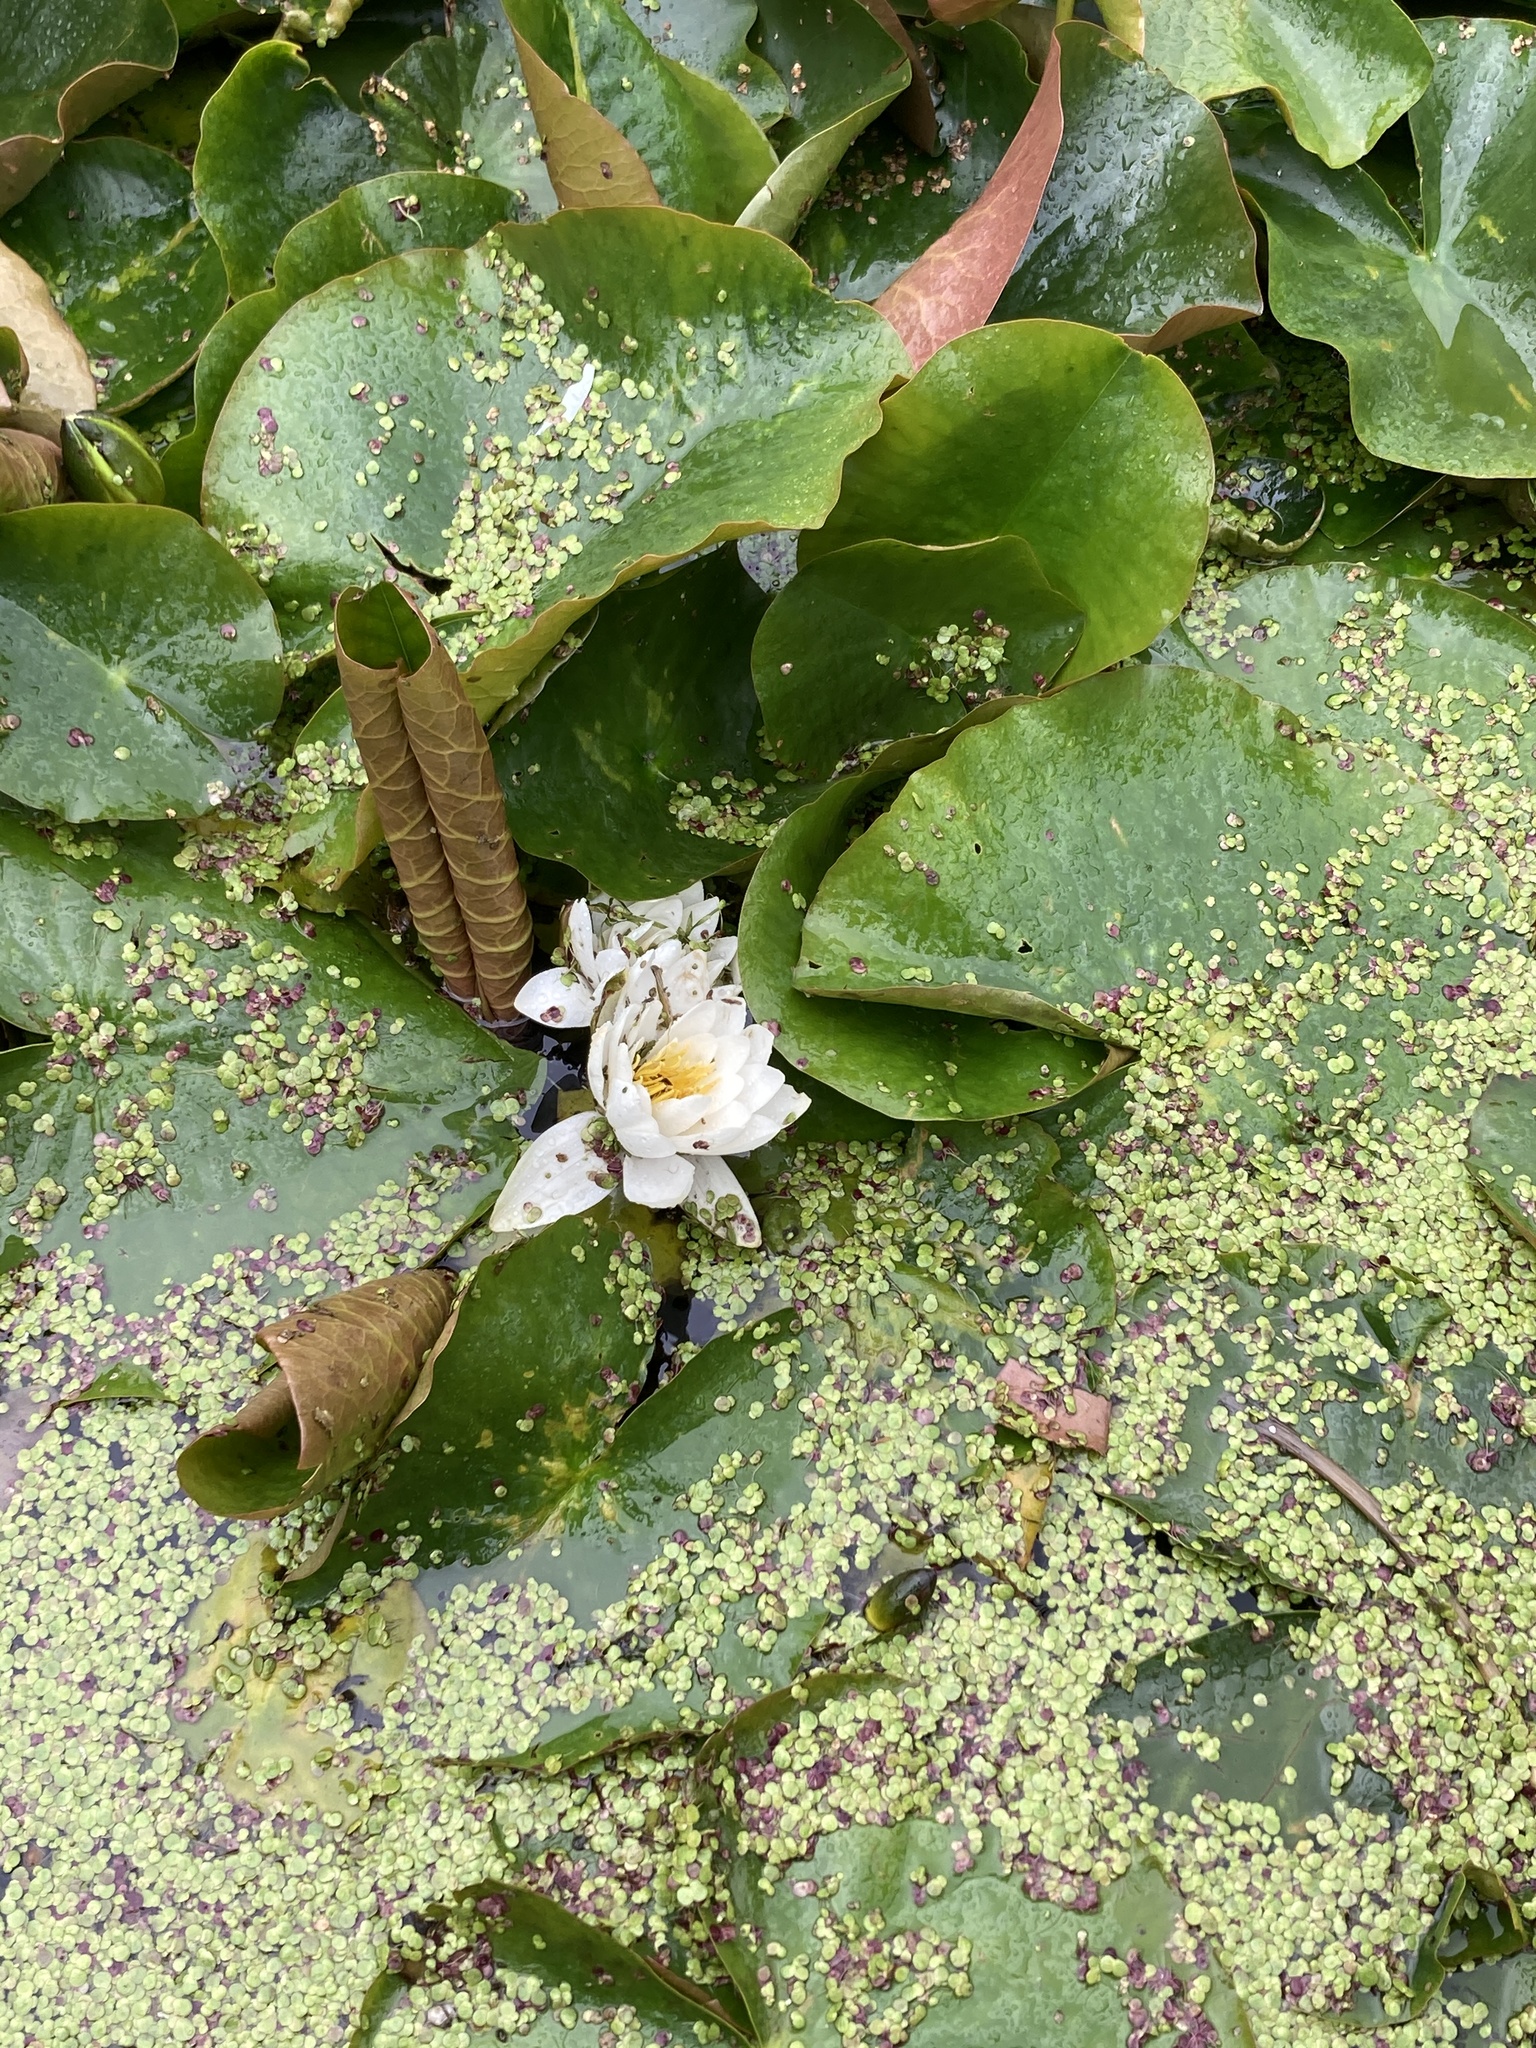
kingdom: Plantae
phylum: Tracheophyta
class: Magnoliopsida
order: Nymphaeales
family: Nymphaeaceae
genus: Nymphaea
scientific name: Nymphaea alba
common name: White water-lily
